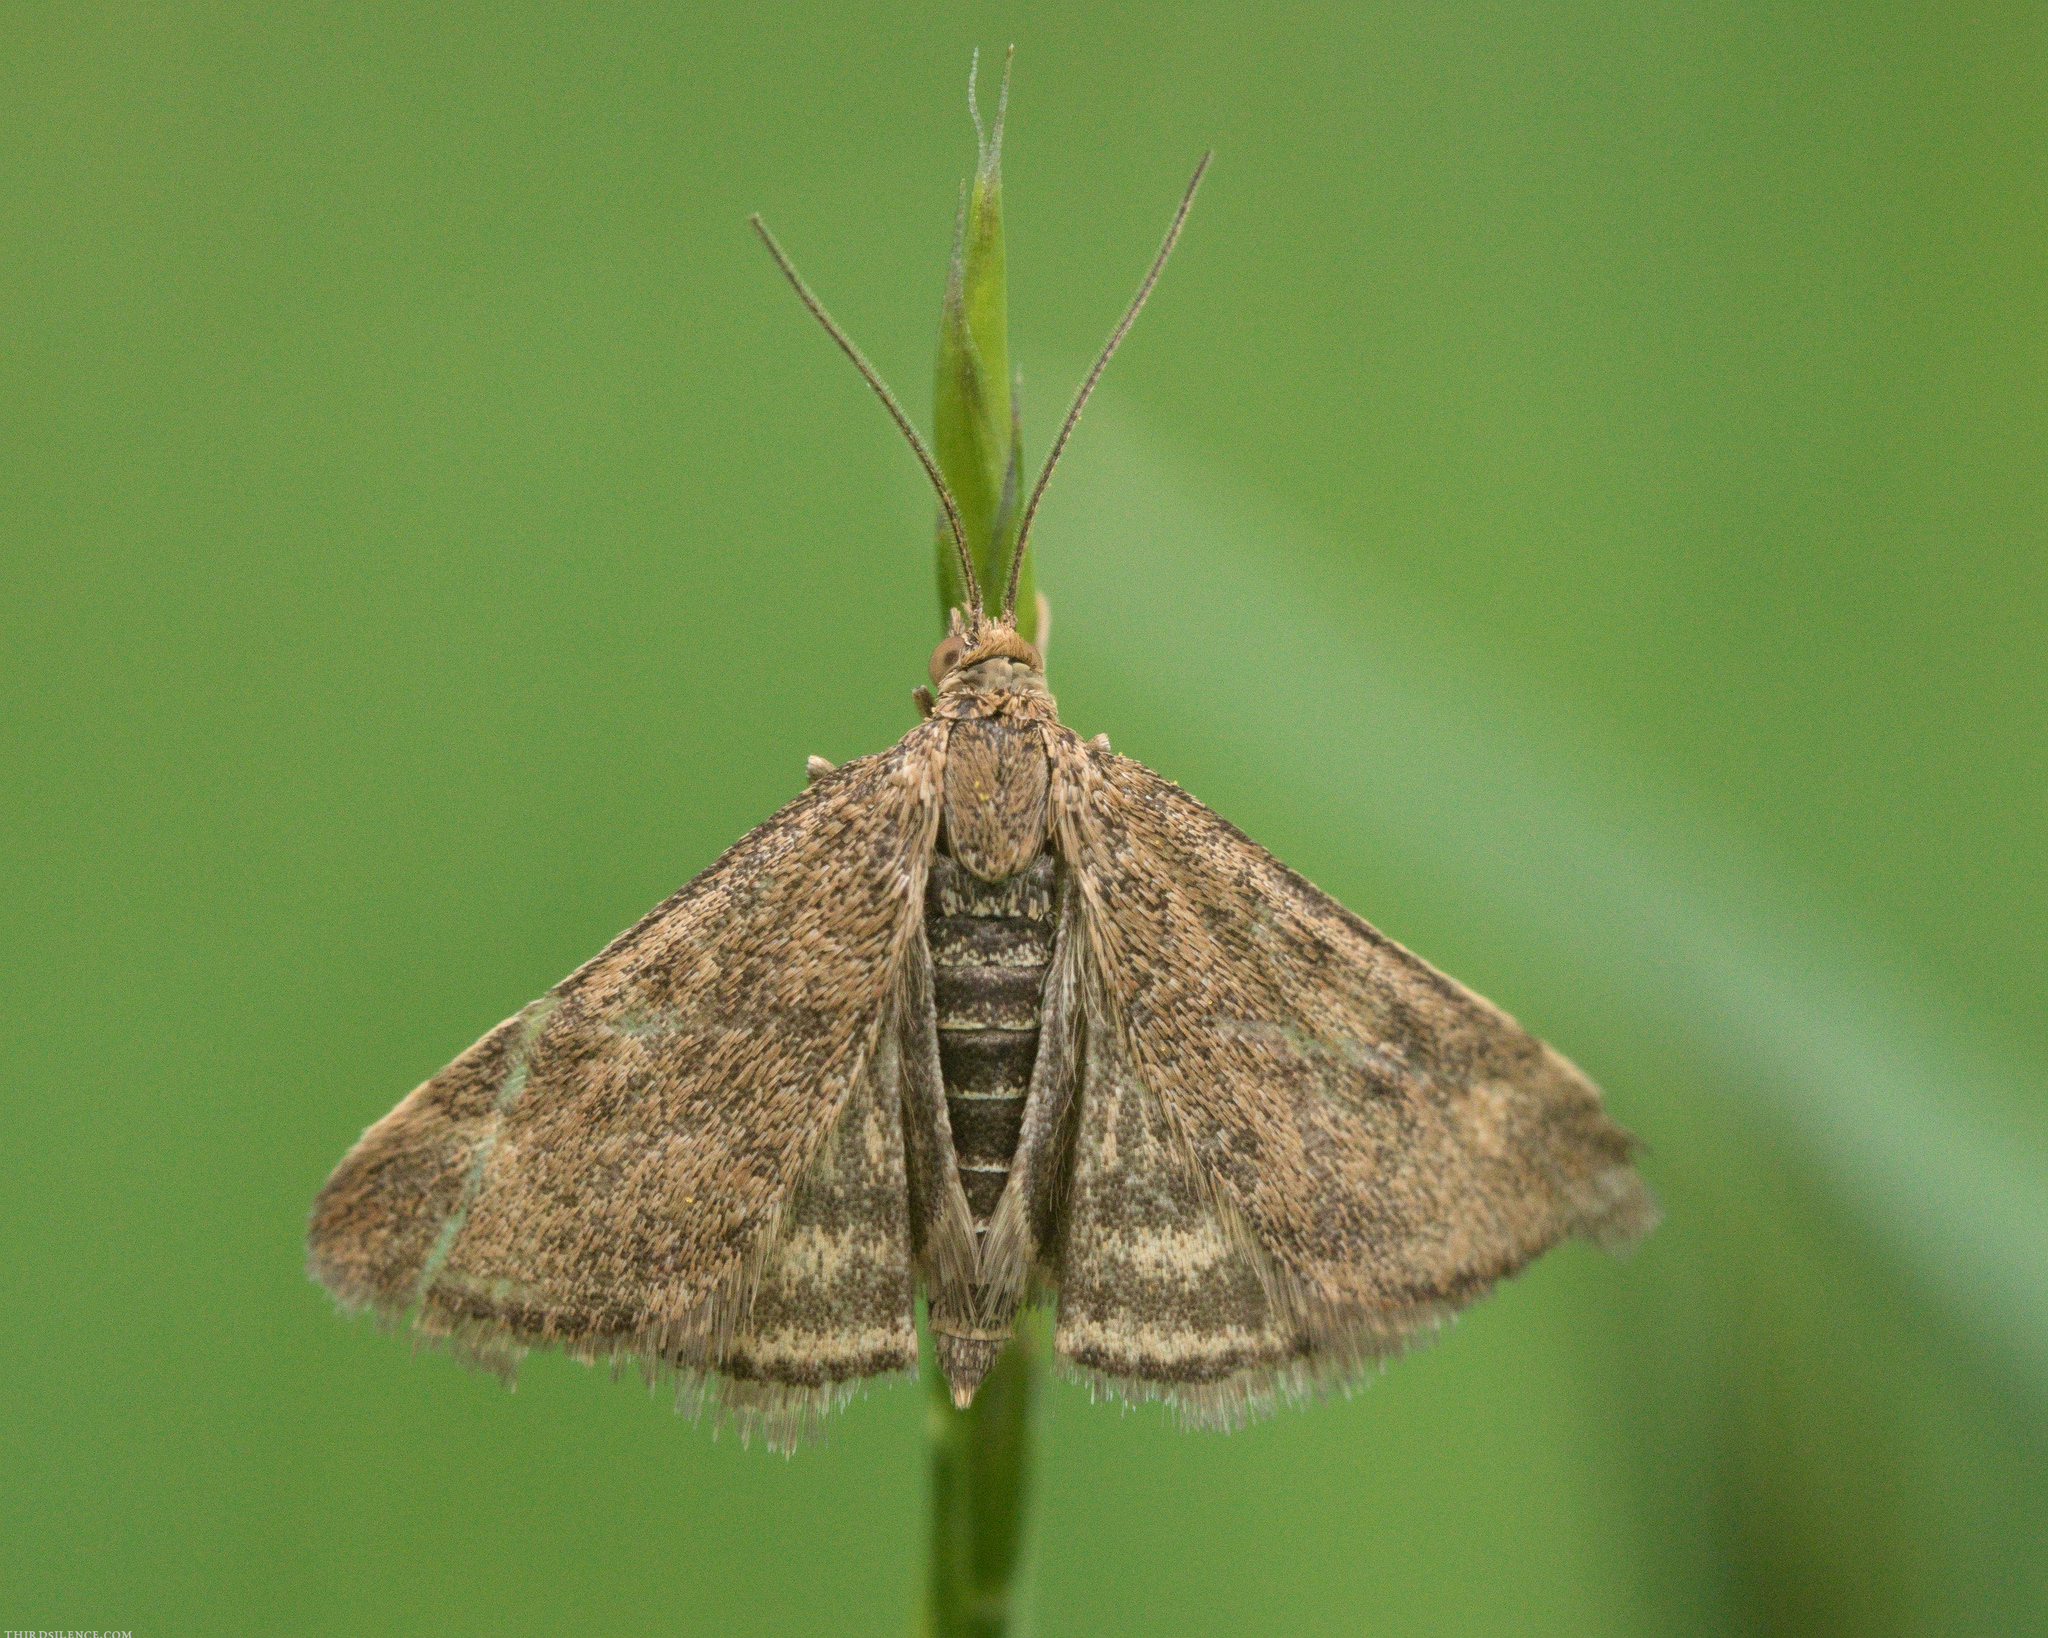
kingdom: Animalia
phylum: Arthropoda
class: Insecta
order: Lepidoptera
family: Crambidae
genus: Pyrausta
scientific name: Pyrausta despicata
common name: Straw-barred pearl
